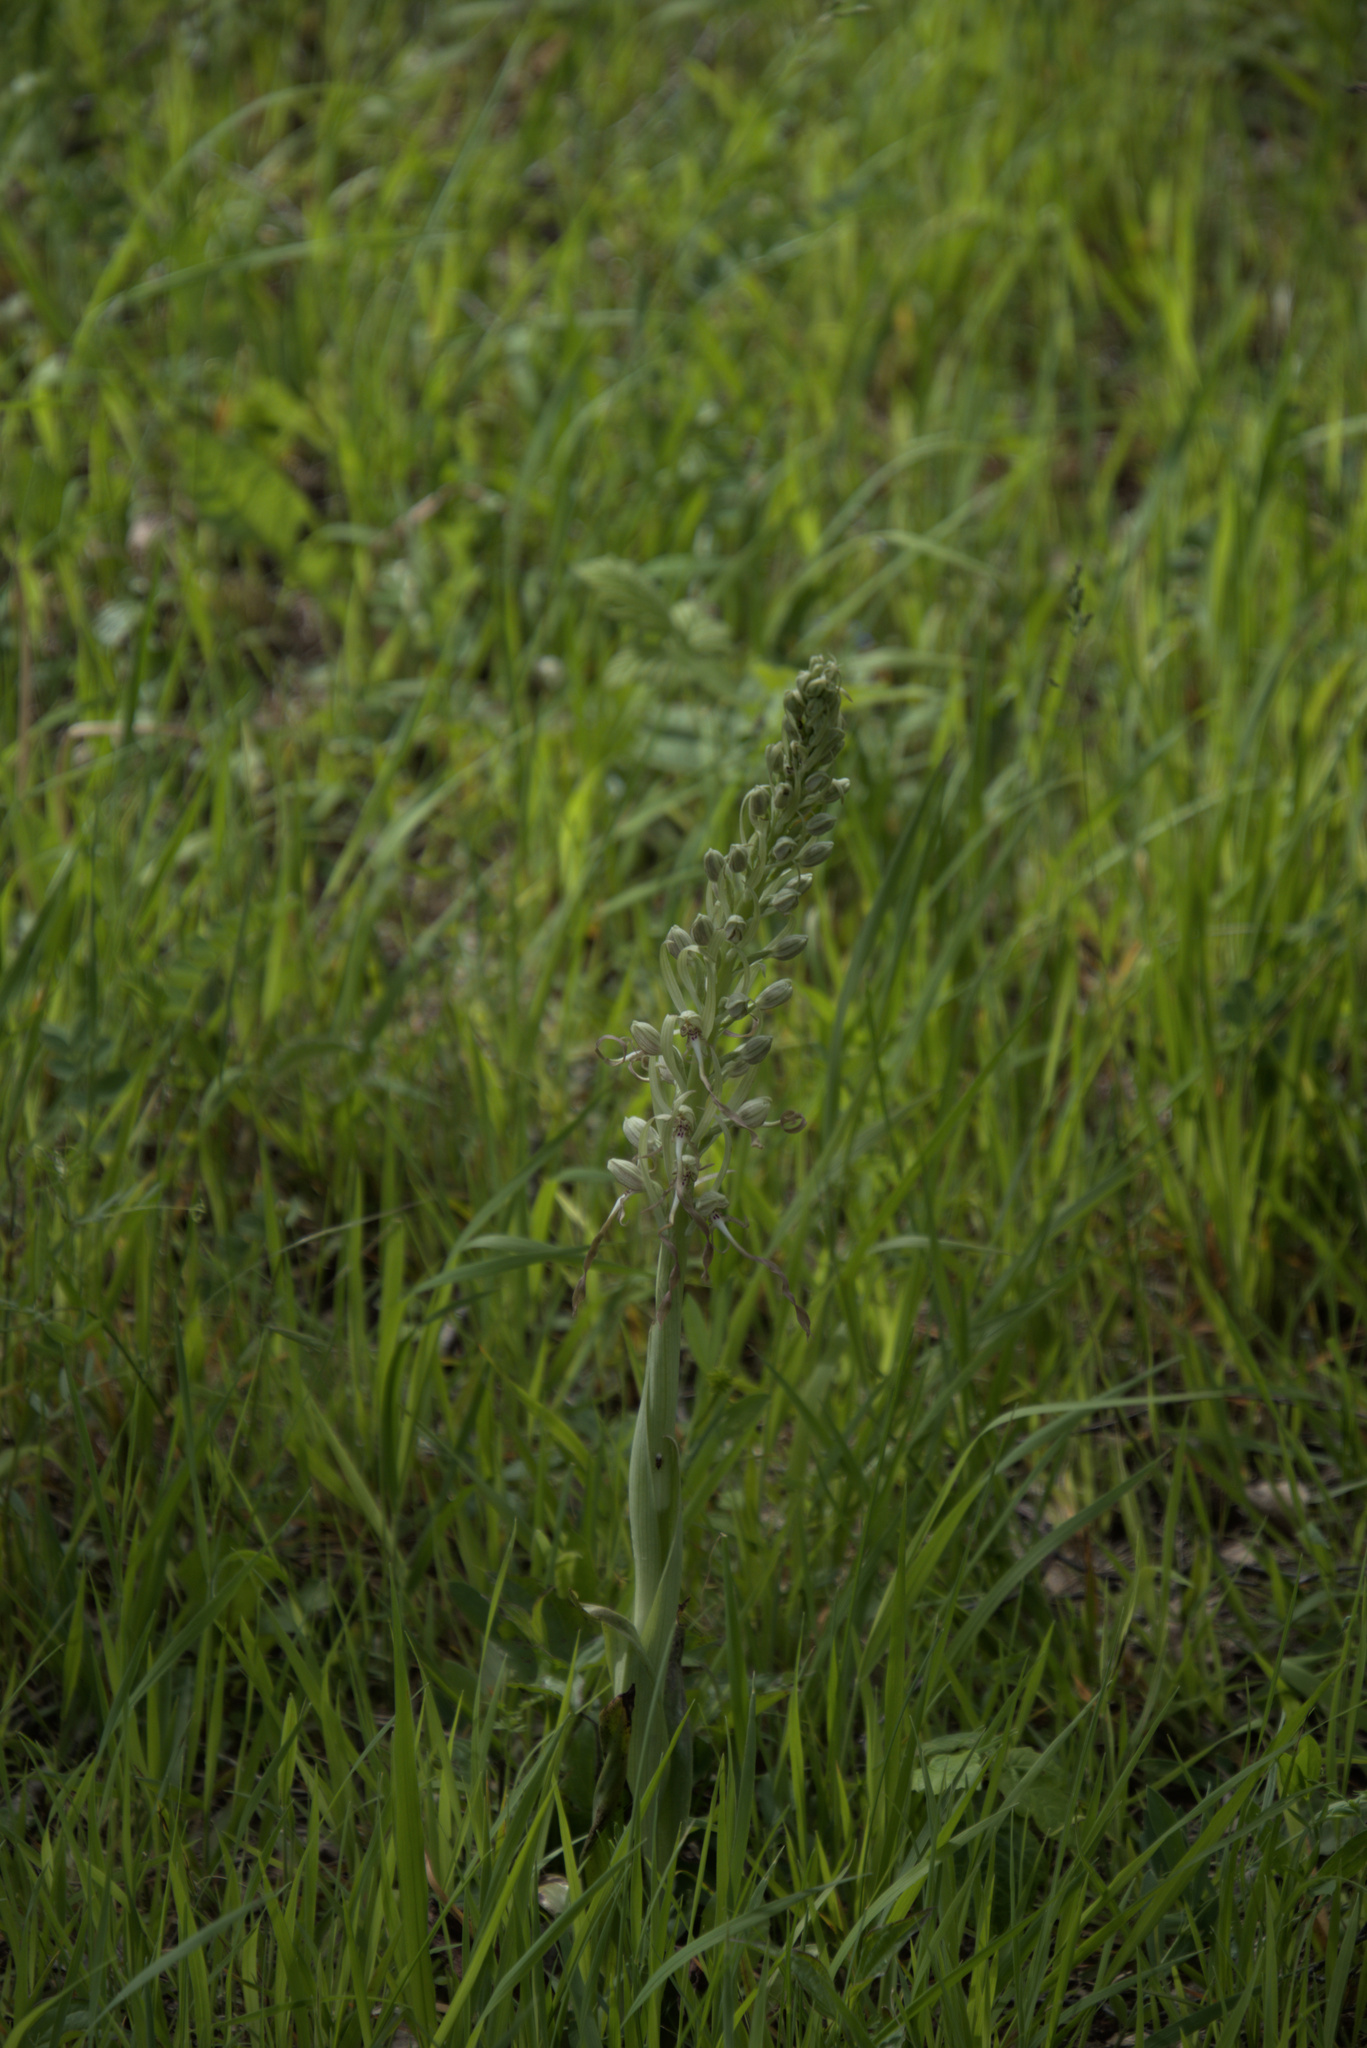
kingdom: Plantae
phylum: Tracheophyta
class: Liliopsida
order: Asparagales
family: Orchidaceae
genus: Himantoglossum
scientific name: Himantoglossum hircinum
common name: Lizard orchid
